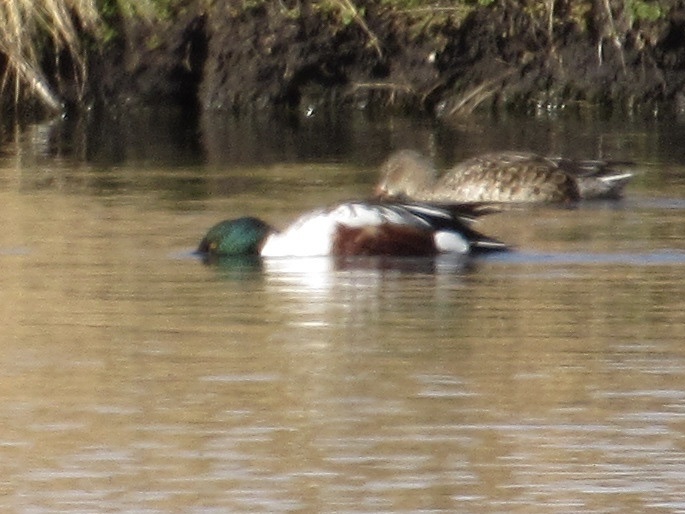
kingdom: Animalia
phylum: Chordata
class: Aves
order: Anseriformes
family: Anatidae
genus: Spatula
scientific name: Spatula clypeata
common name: Northern shoveler
